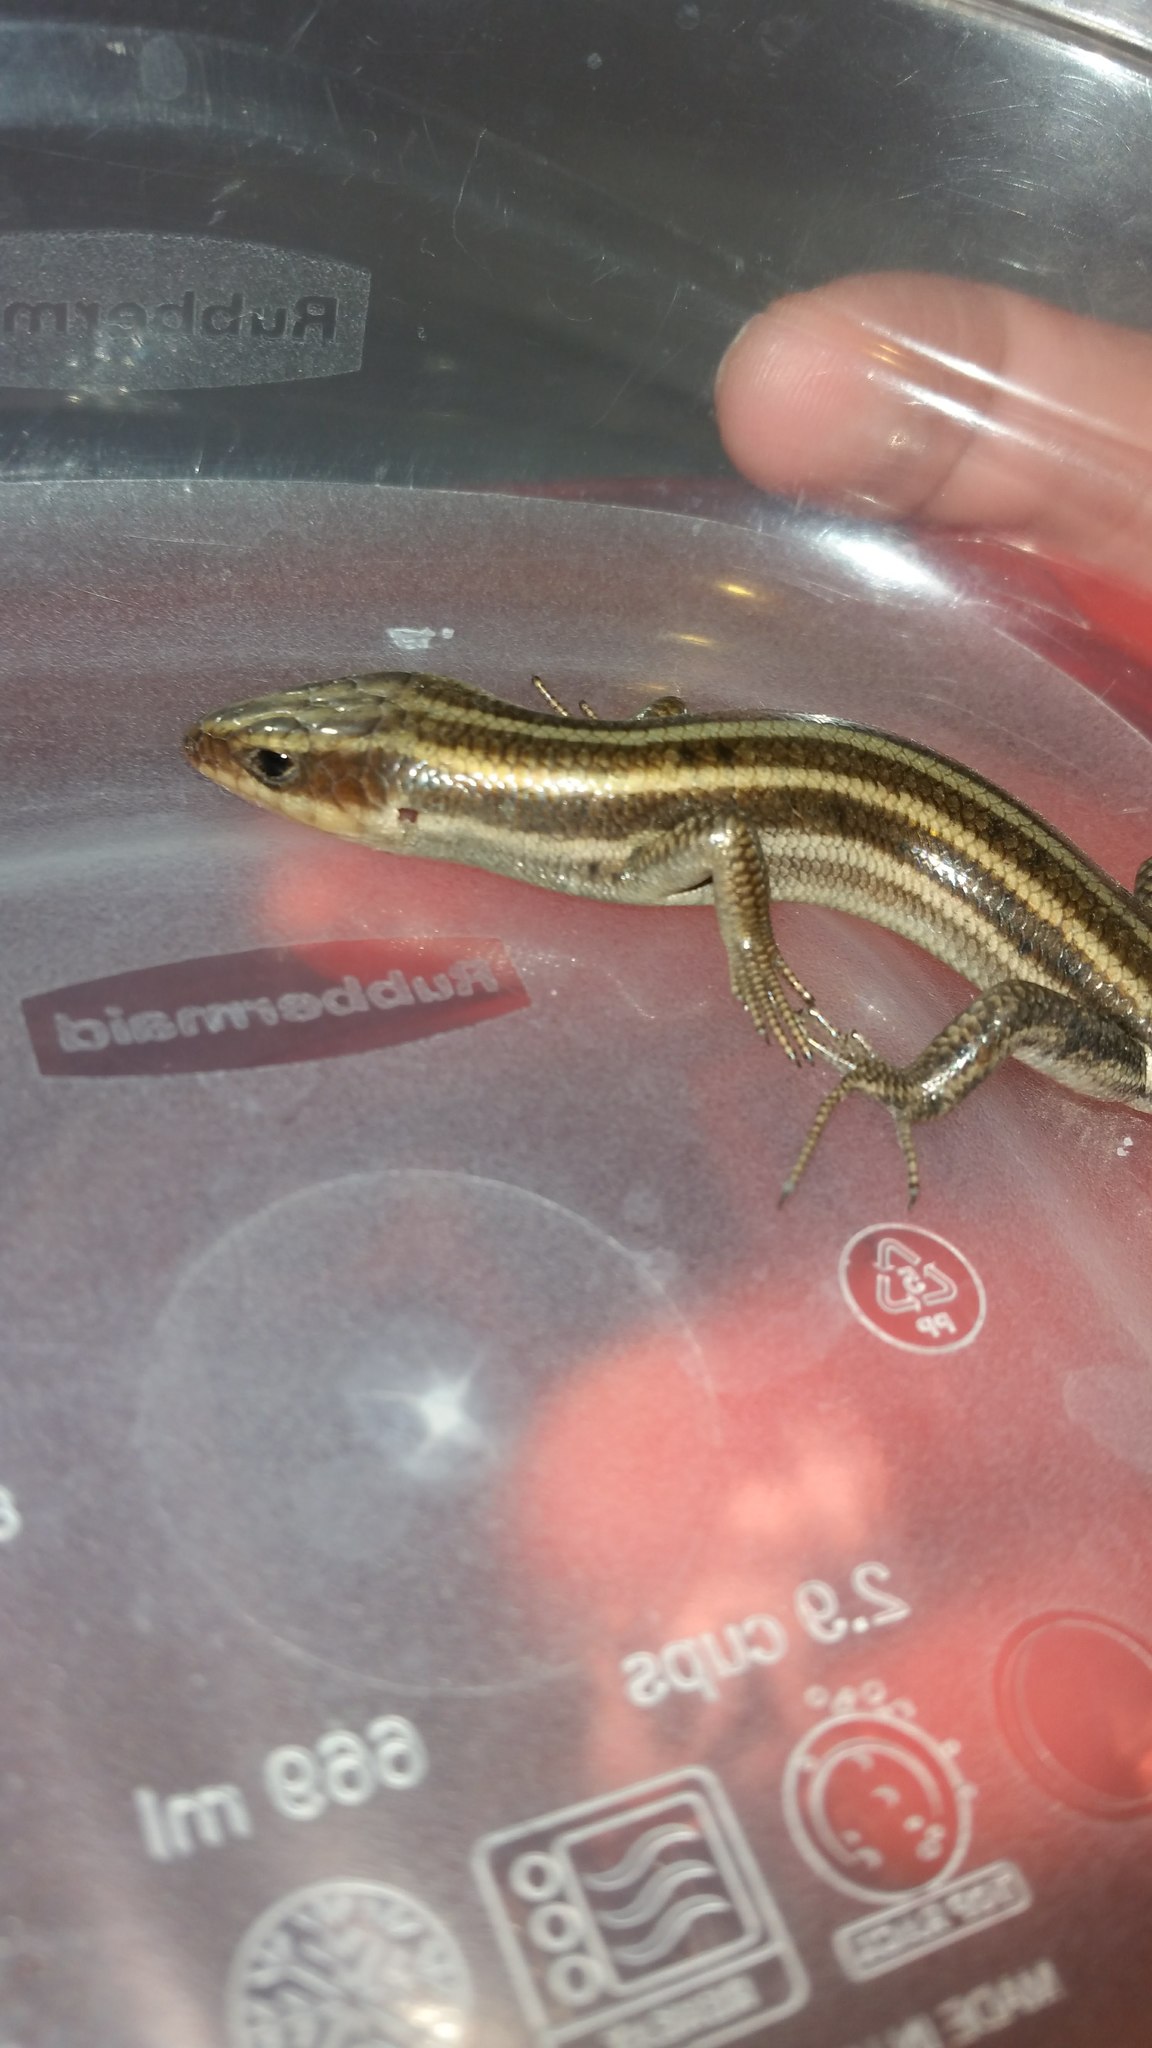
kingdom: Animalia
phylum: Chordata
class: Squamata
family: Scincidae
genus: Plestiodon
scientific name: Plestiodon fasciatus
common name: Five-lined skink
